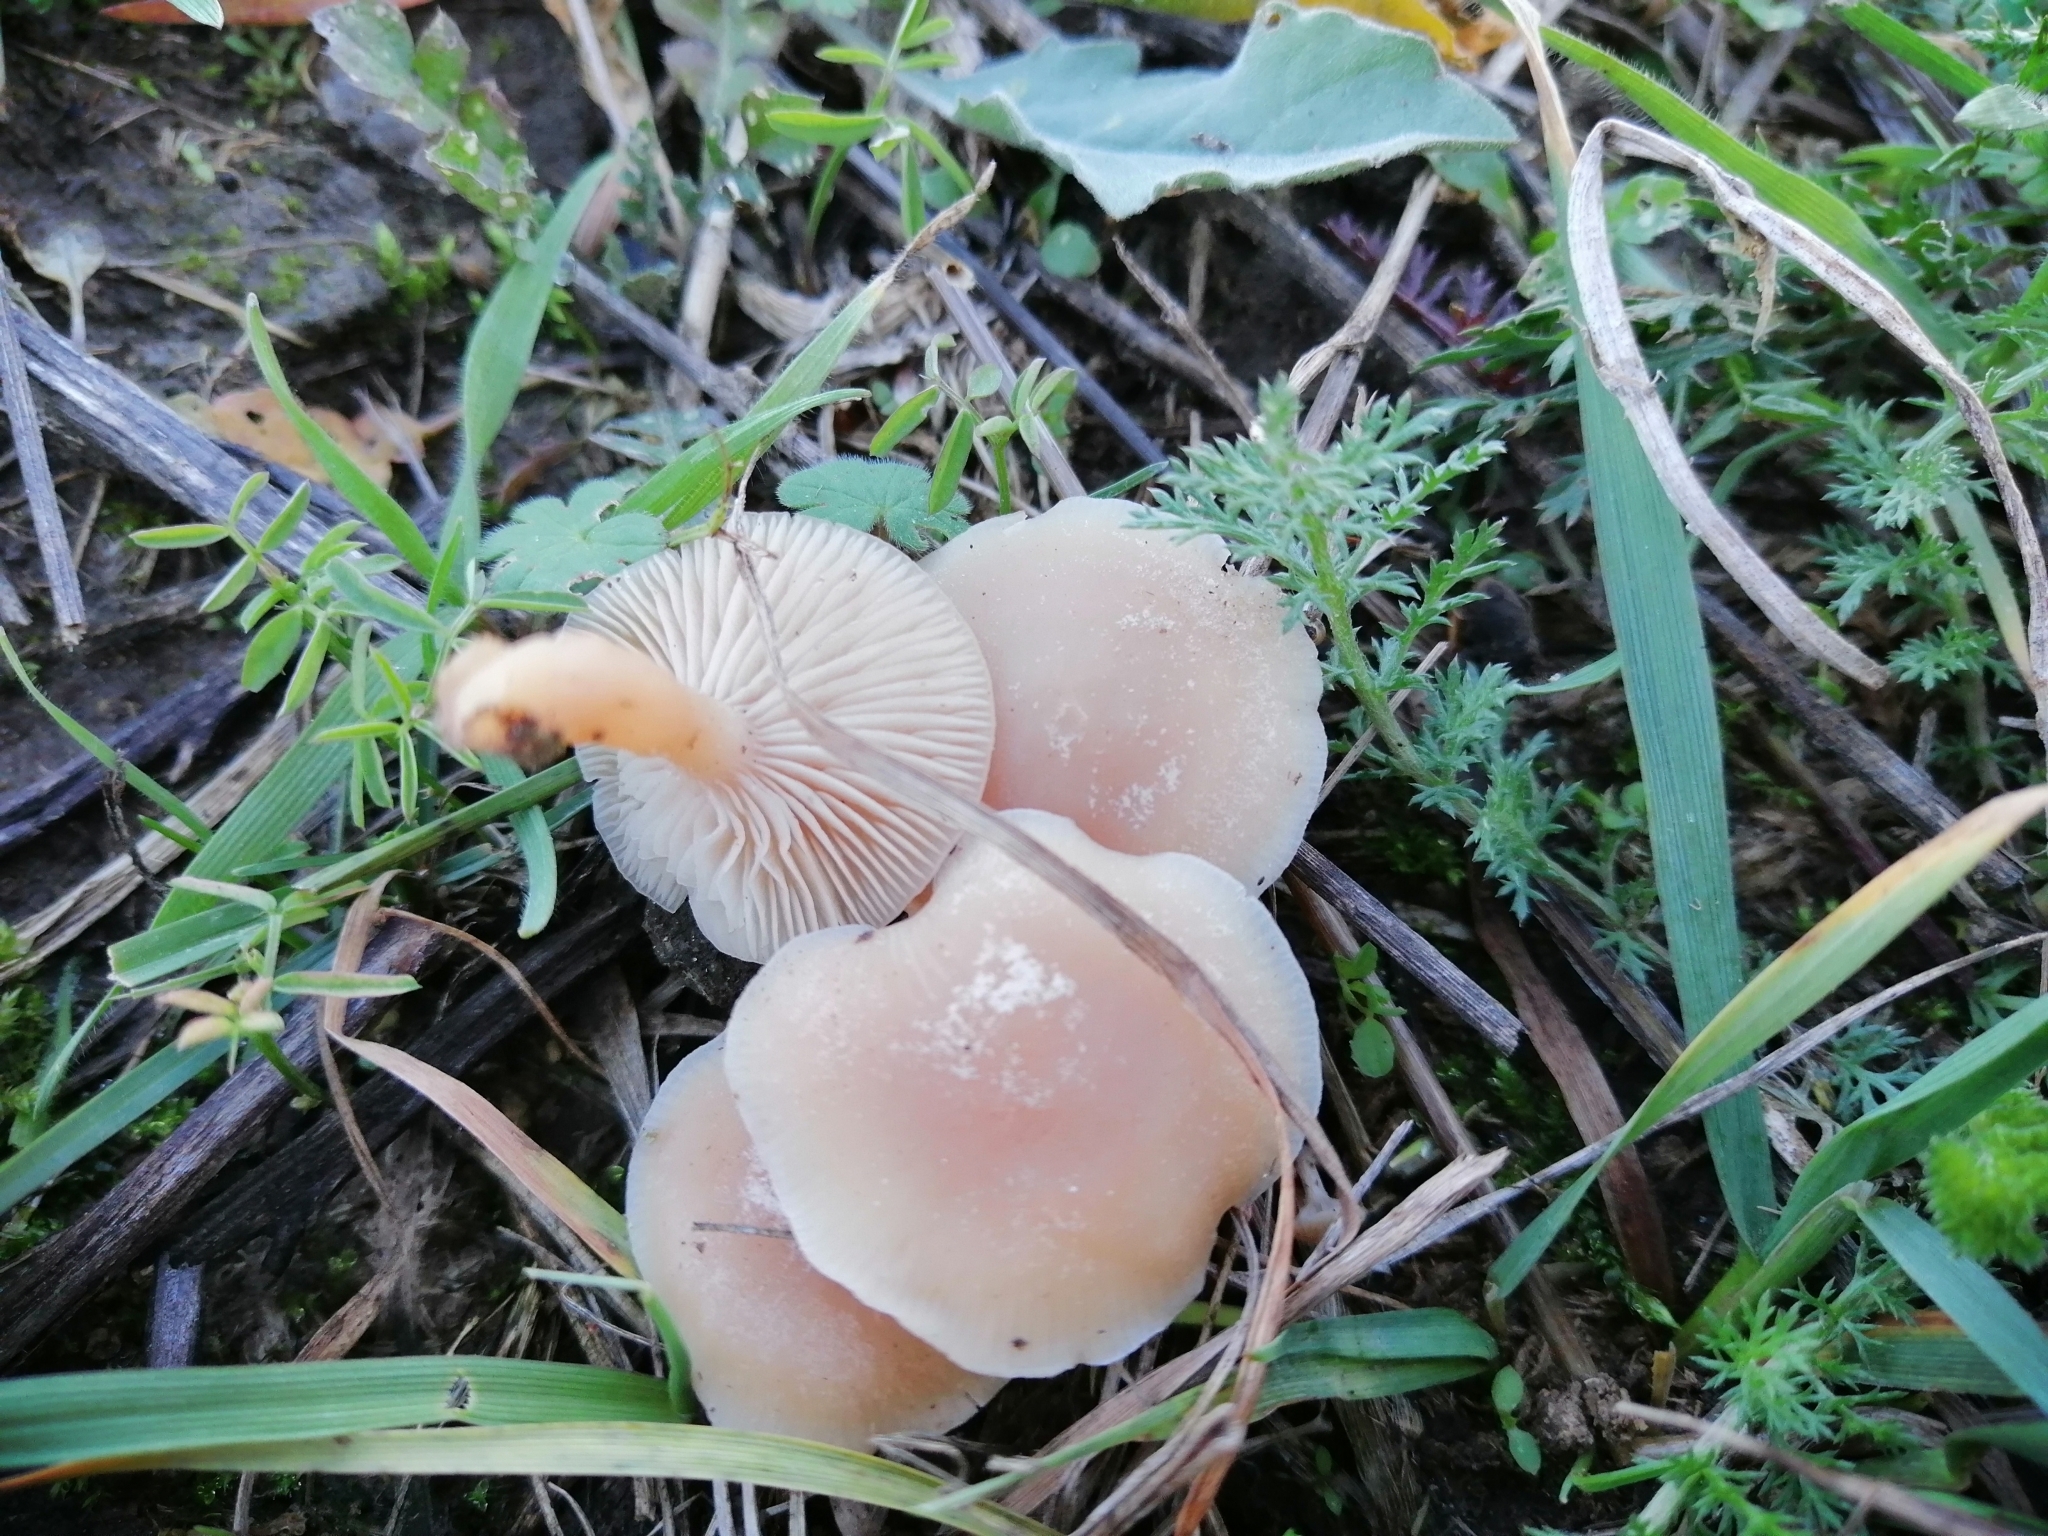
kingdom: Fungi
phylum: Basidiomycota
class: Agaricomycetes
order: Agaricales
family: Tricholomataceae
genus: Collybia
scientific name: Collybia
